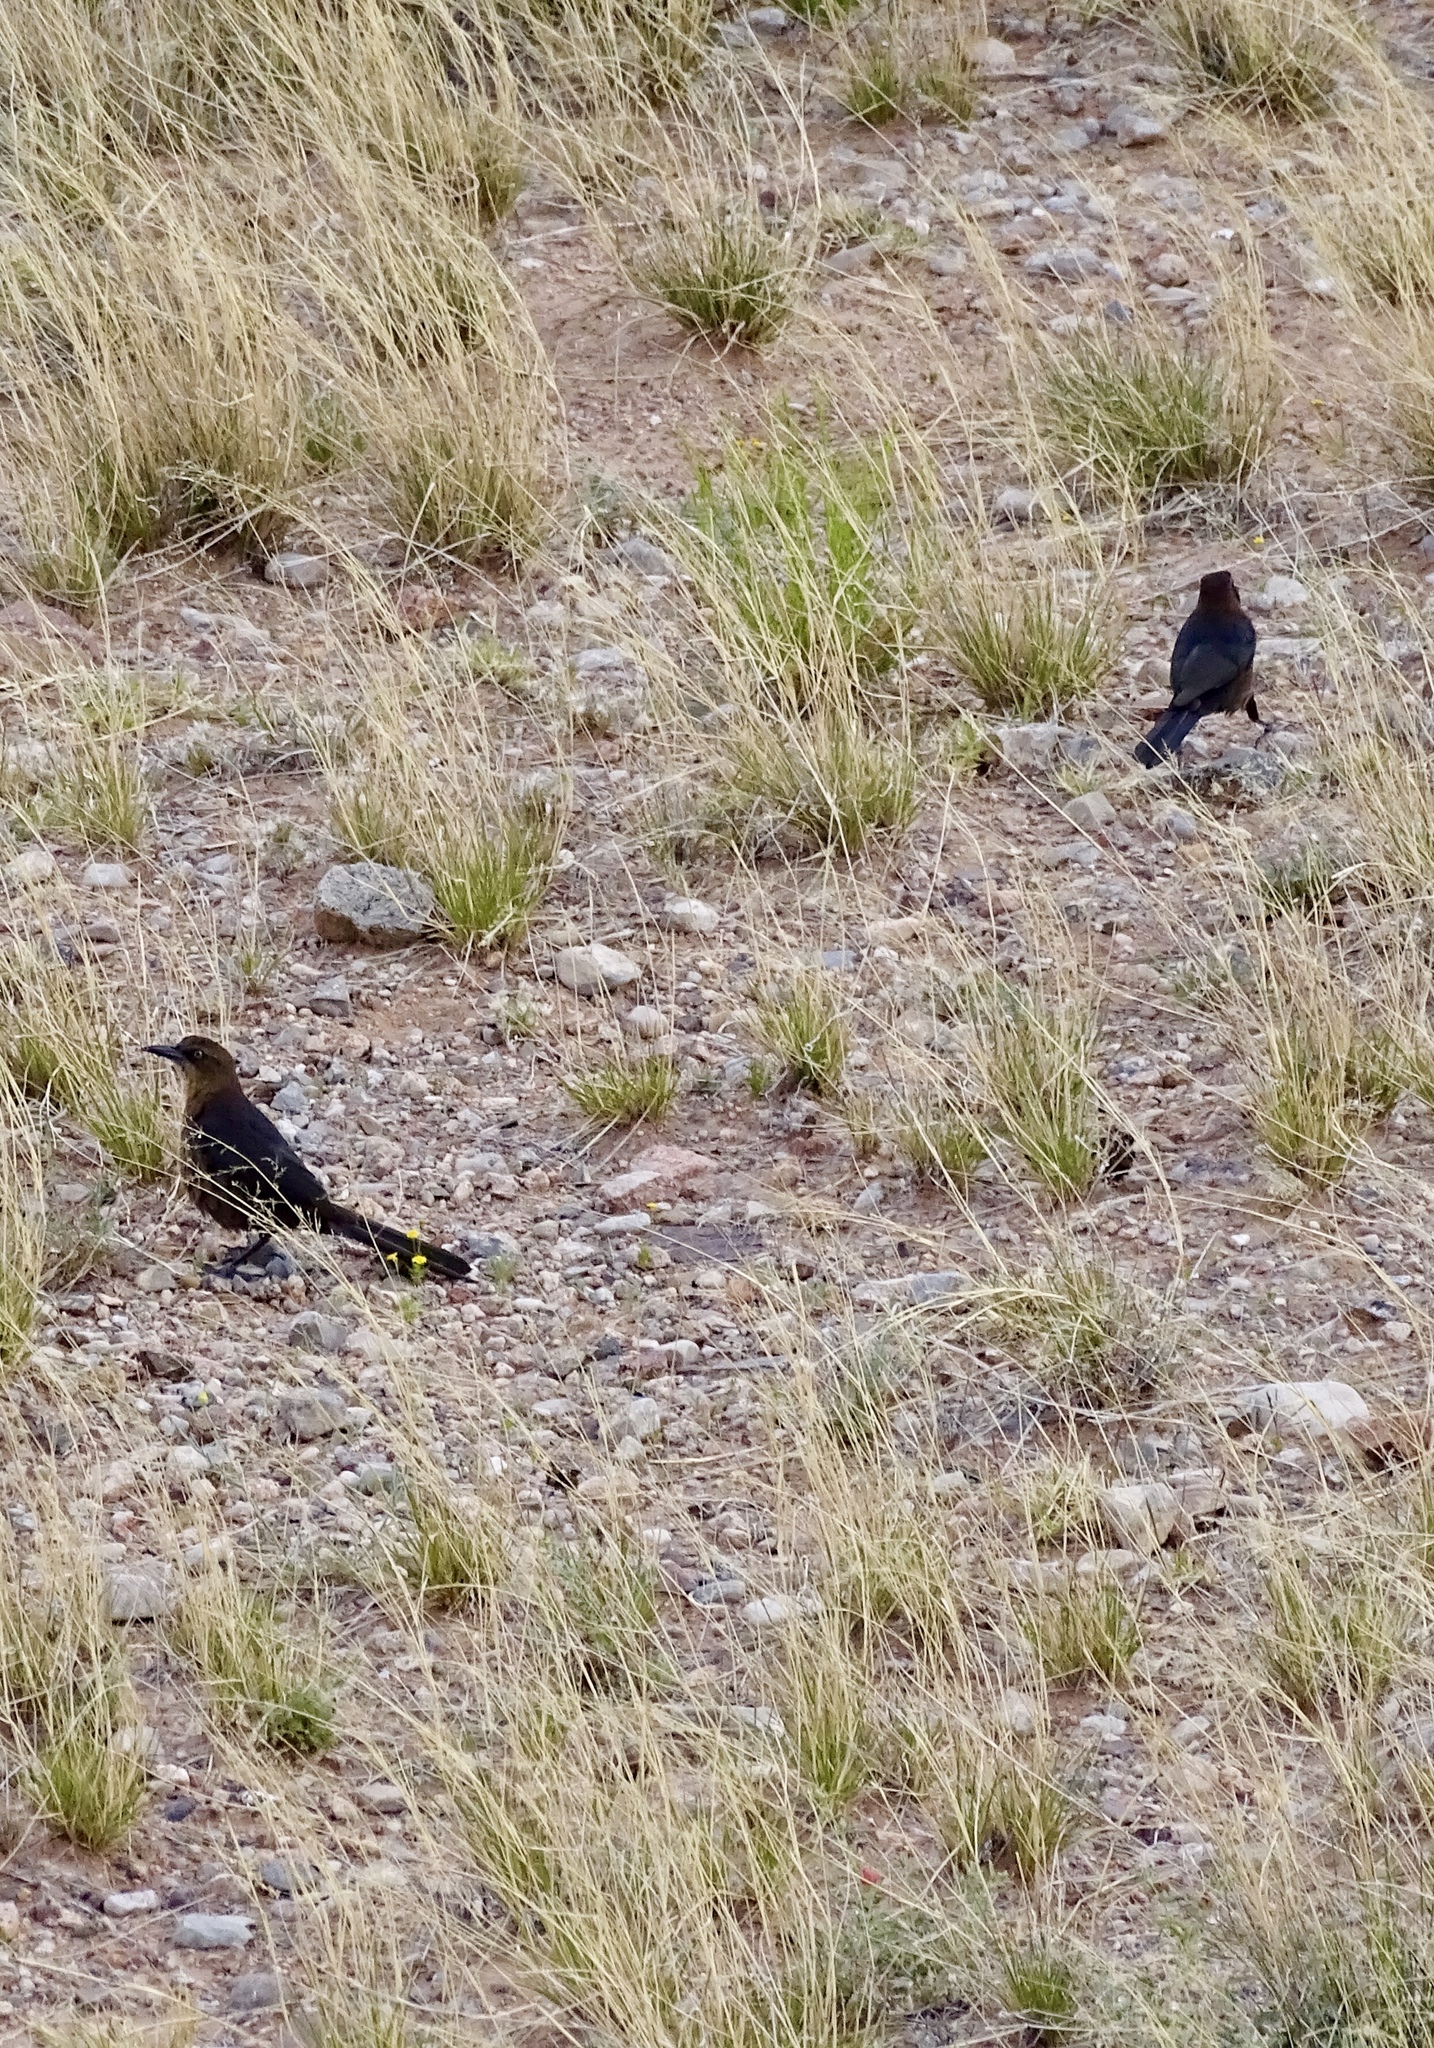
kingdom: Animalia
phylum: Chordata
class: Aves
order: Passeriformes
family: Icteridae
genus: Quiscalus
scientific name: Quiscalus mexicanus
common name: Great-tailed grackle
